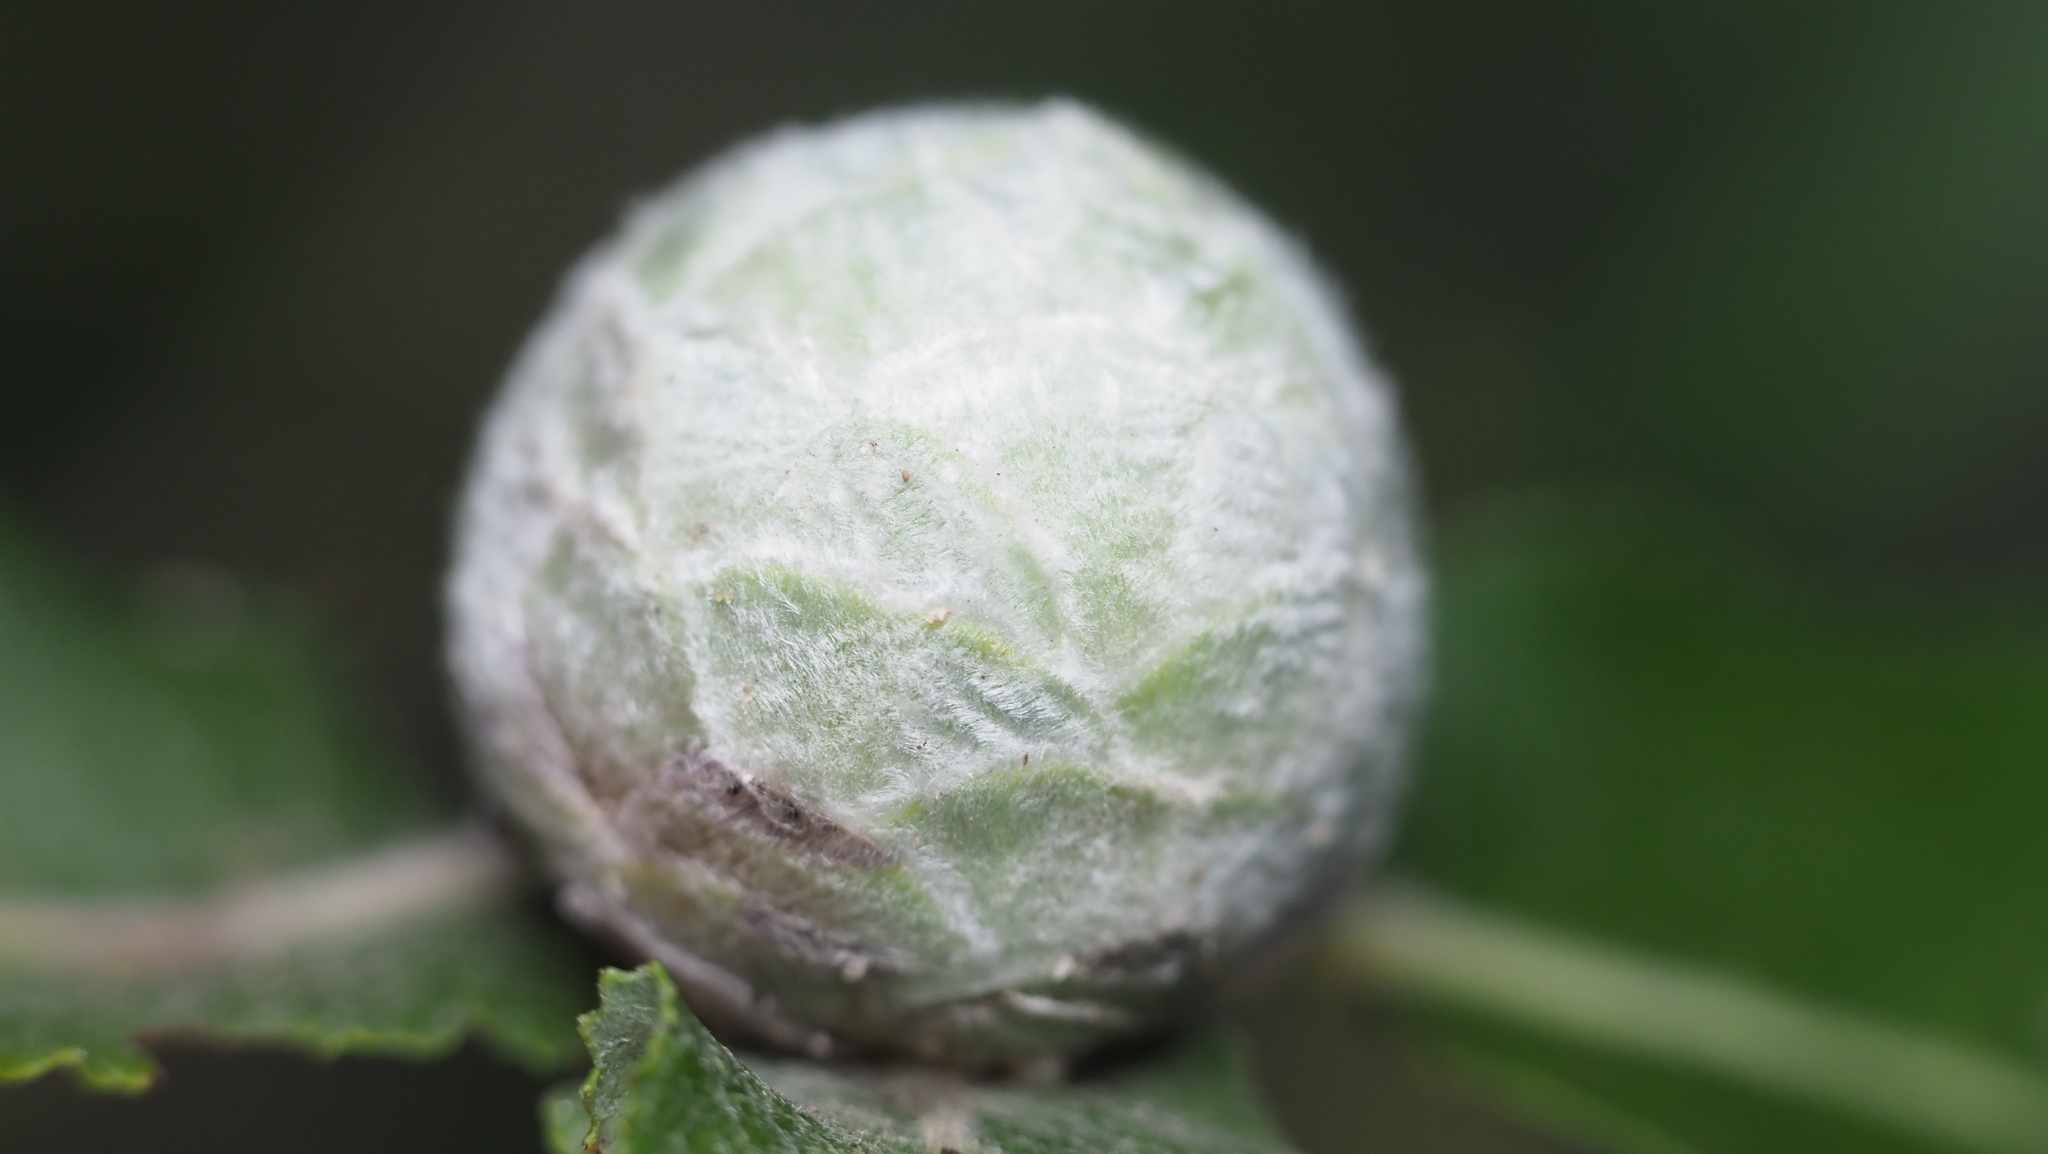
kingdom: Animalia
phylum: Arthropoda
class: Insecta
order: Diptera
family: Cecidomyiidae
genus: Rabdophaga
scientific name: Rabdophaga strobiloides
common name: Willow pinecone gall midge
